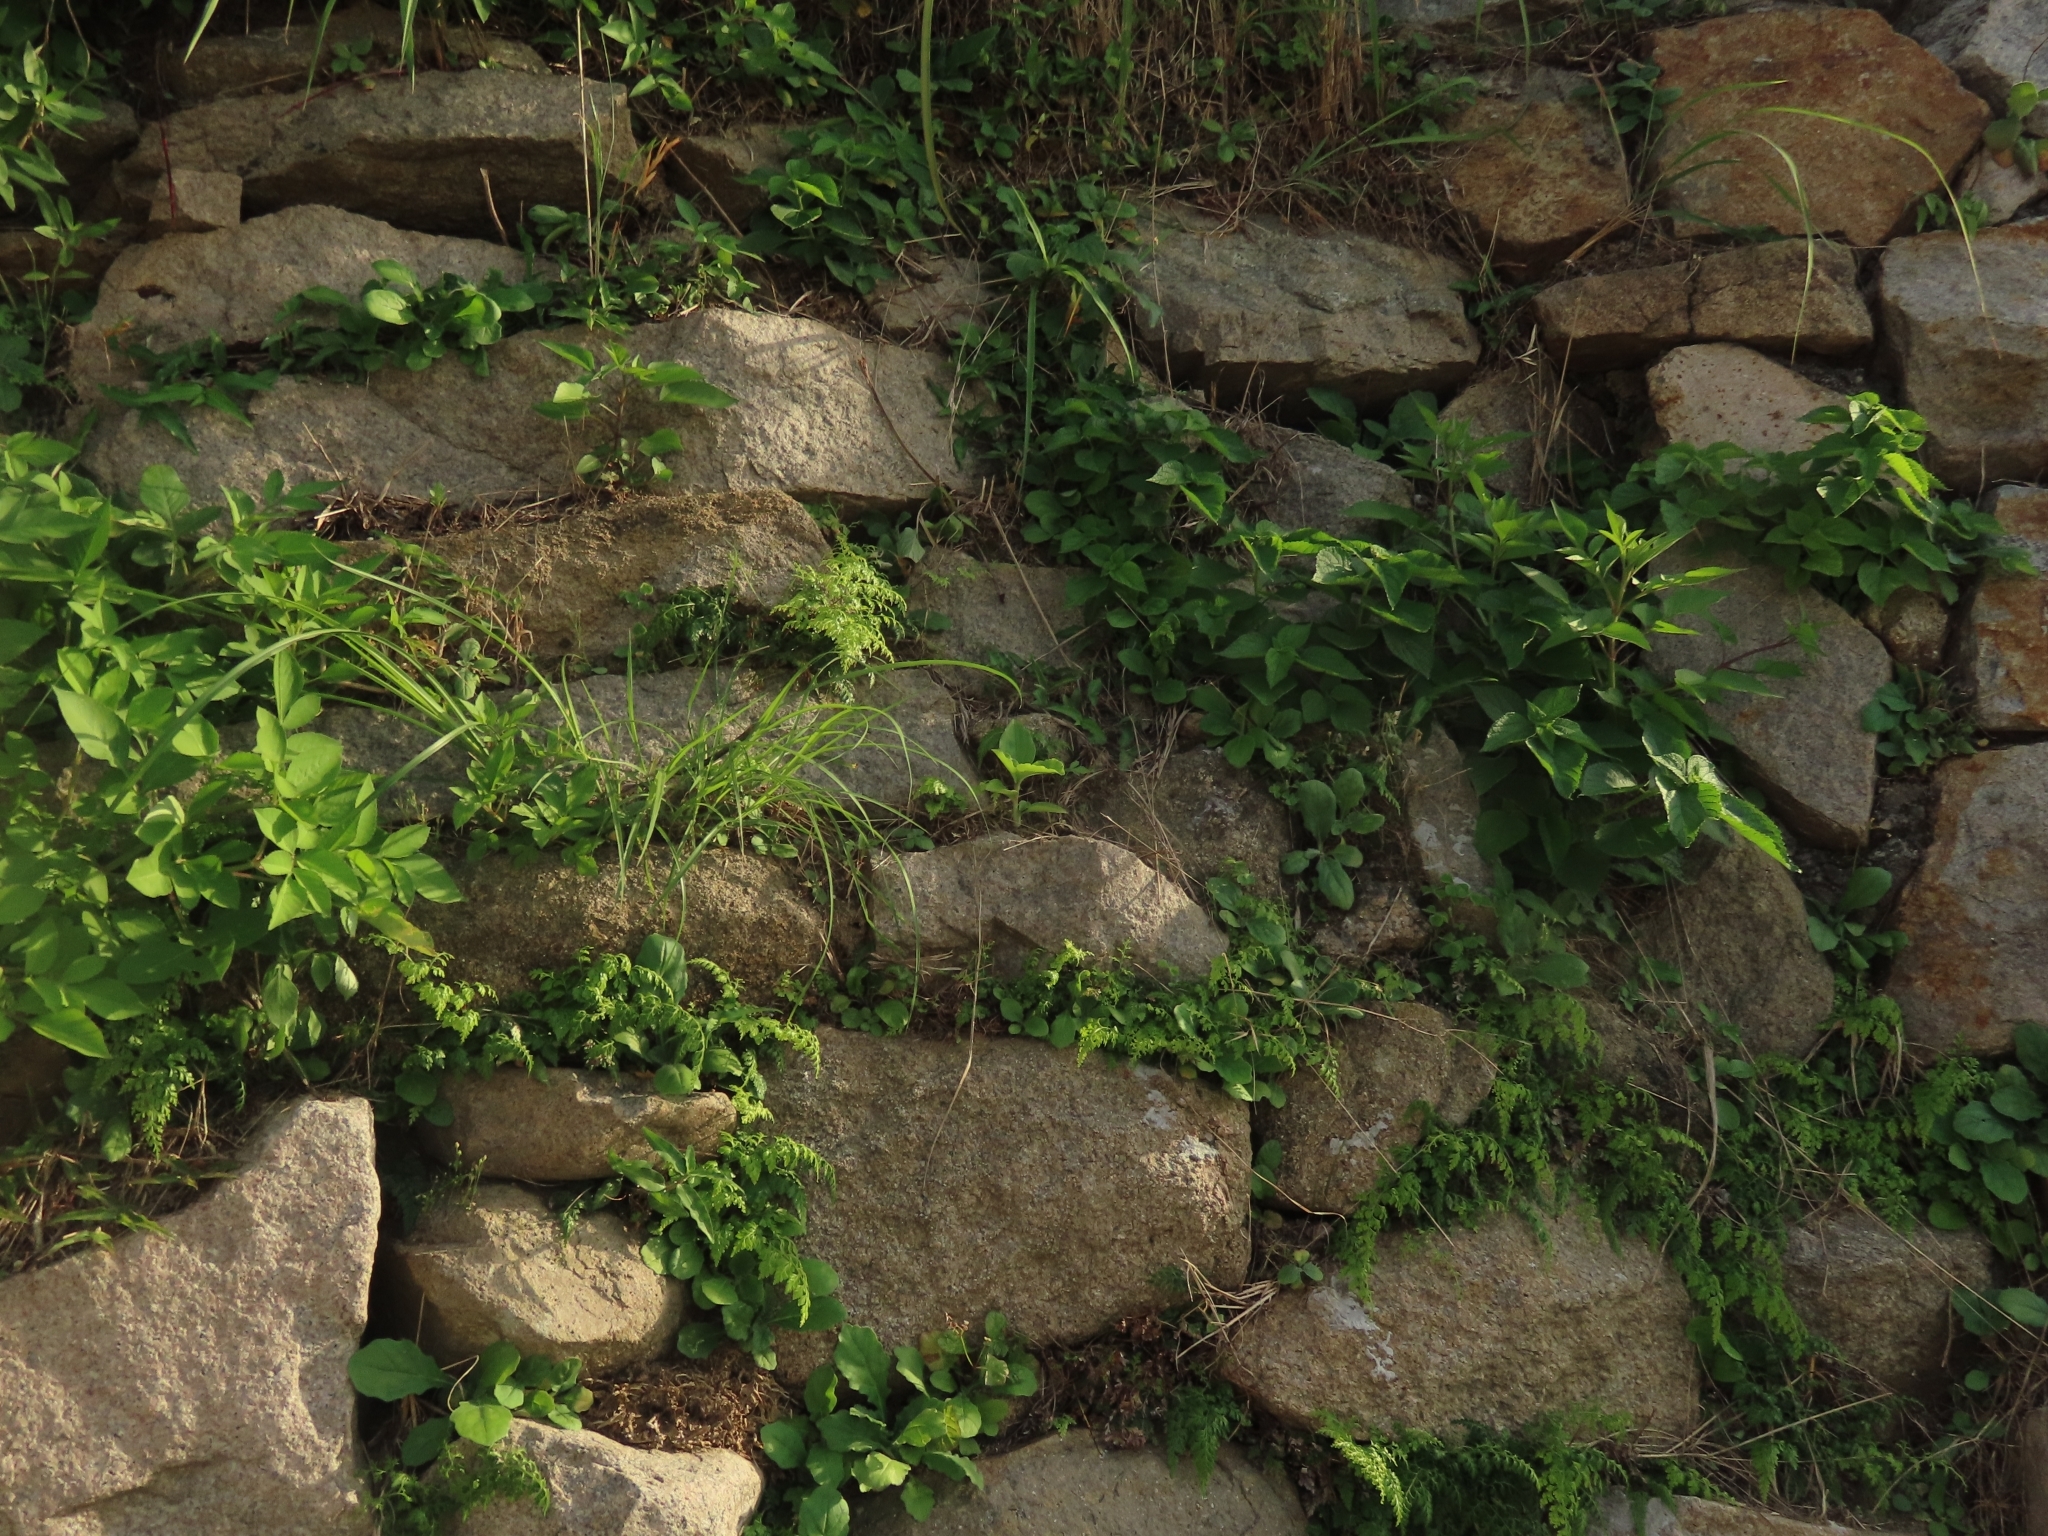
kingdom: Plantae
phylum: Tracheophyta
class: Liliopsida
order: Commelinales
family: Commelinaceae
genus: Commelina
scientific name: Commelina benghalensis
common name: Jio
